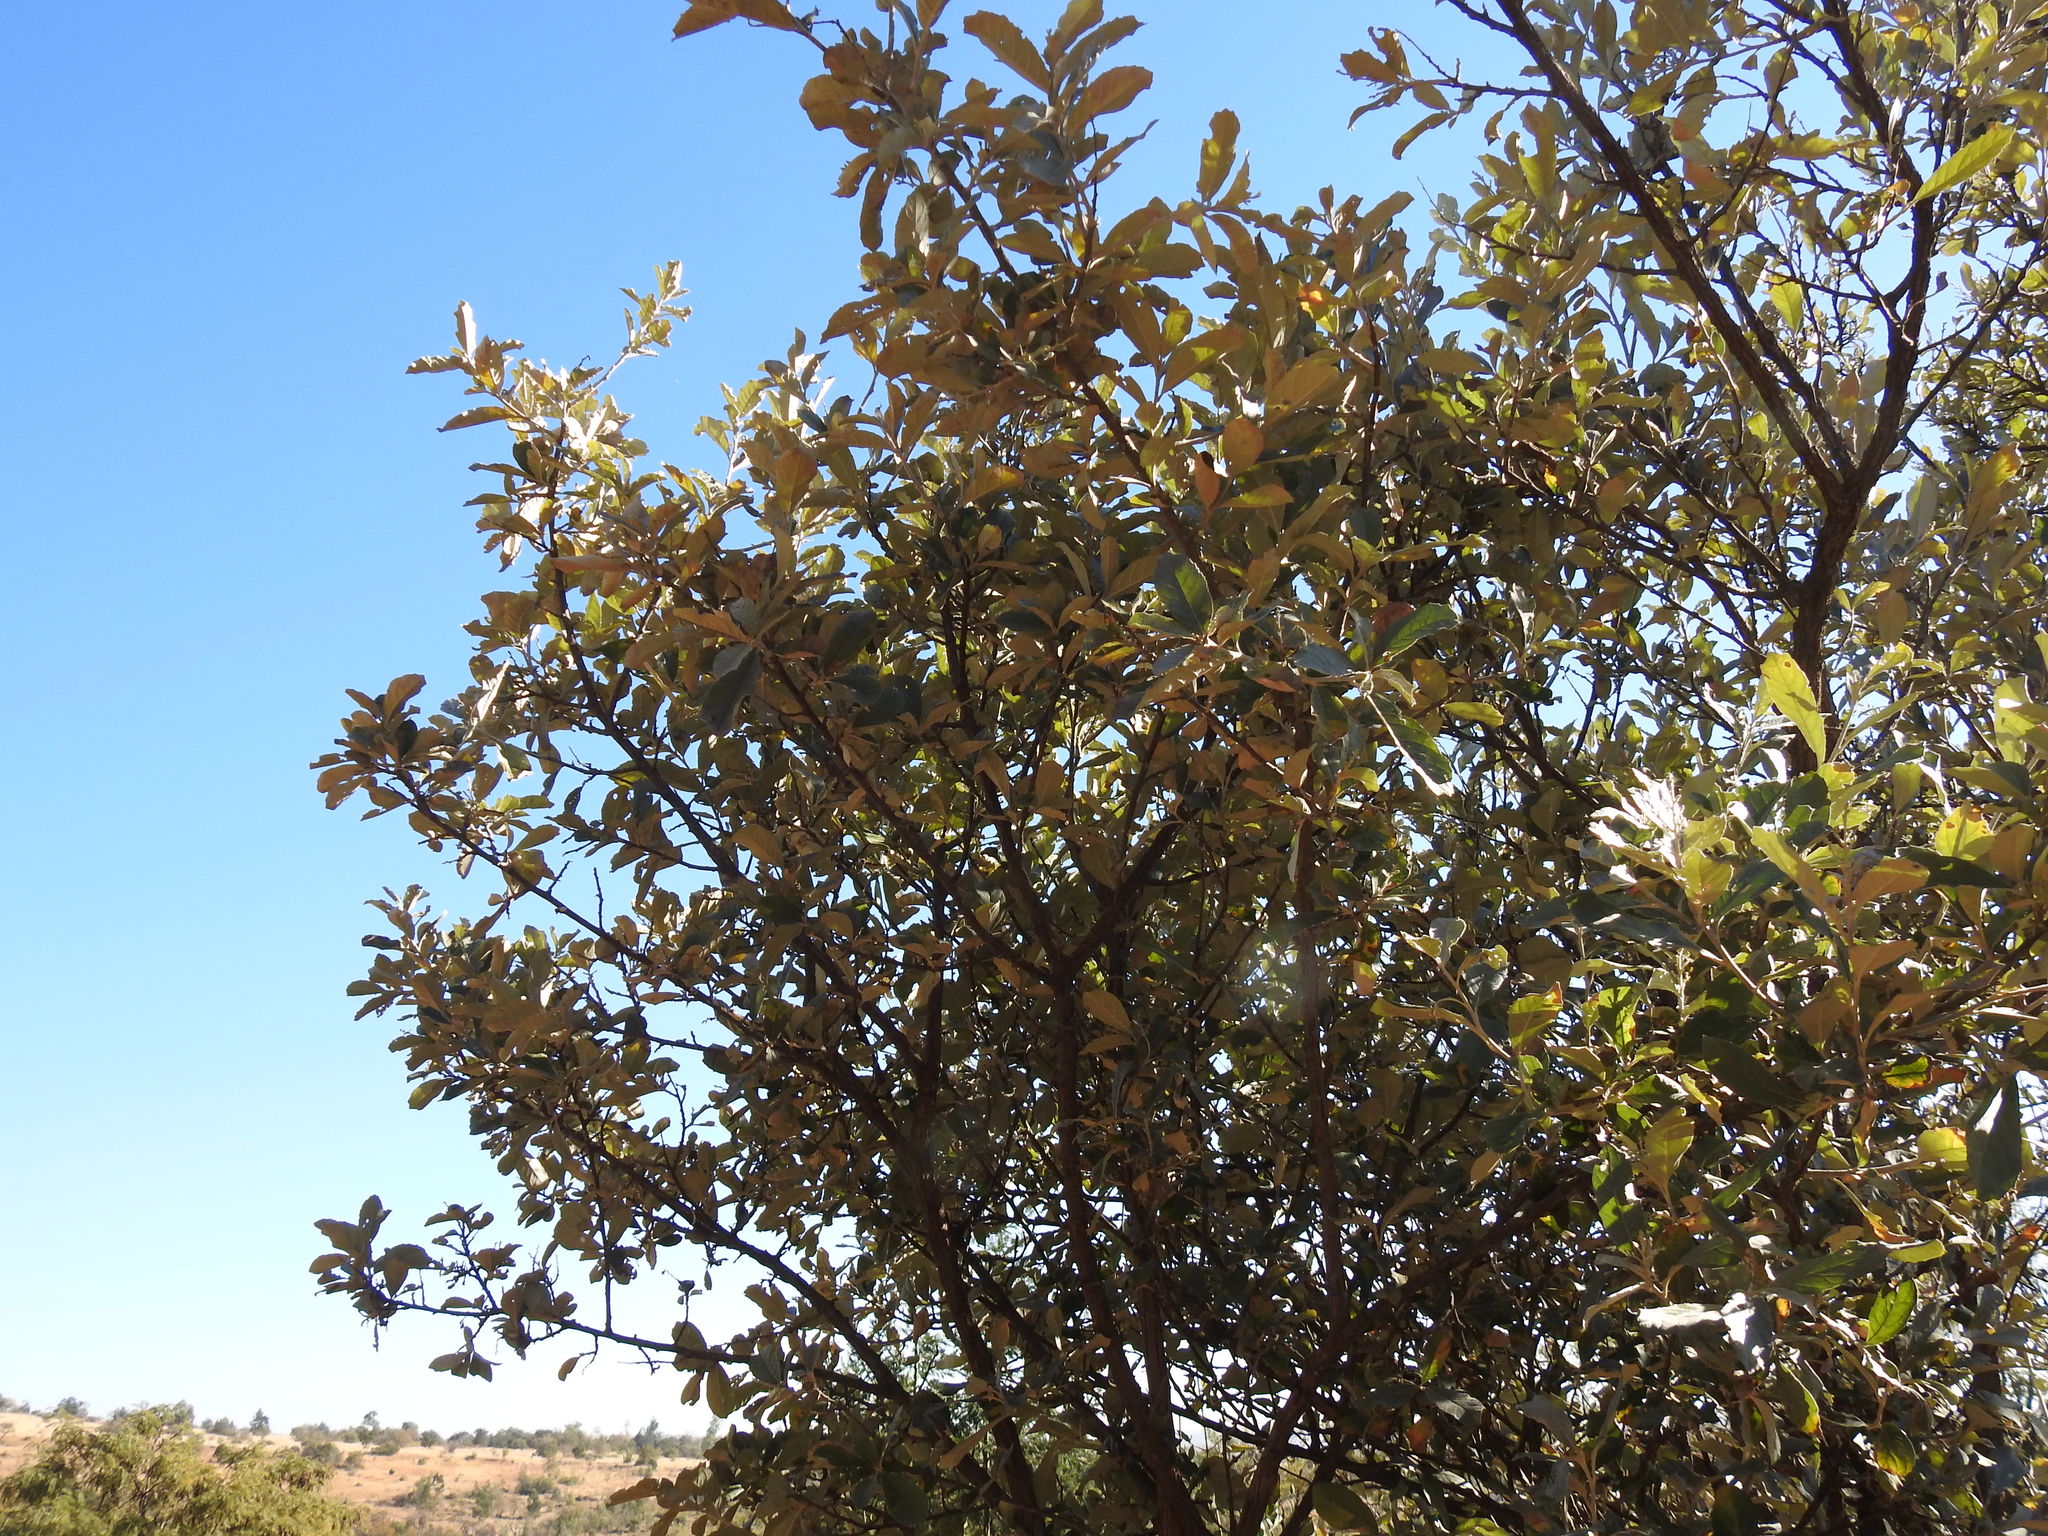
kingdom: Plantae
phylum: Tracheophyta
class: Magnoliopsida
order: Asterales
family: Asteraceae
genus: Brachylaena
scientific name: Brachylaena discolor
